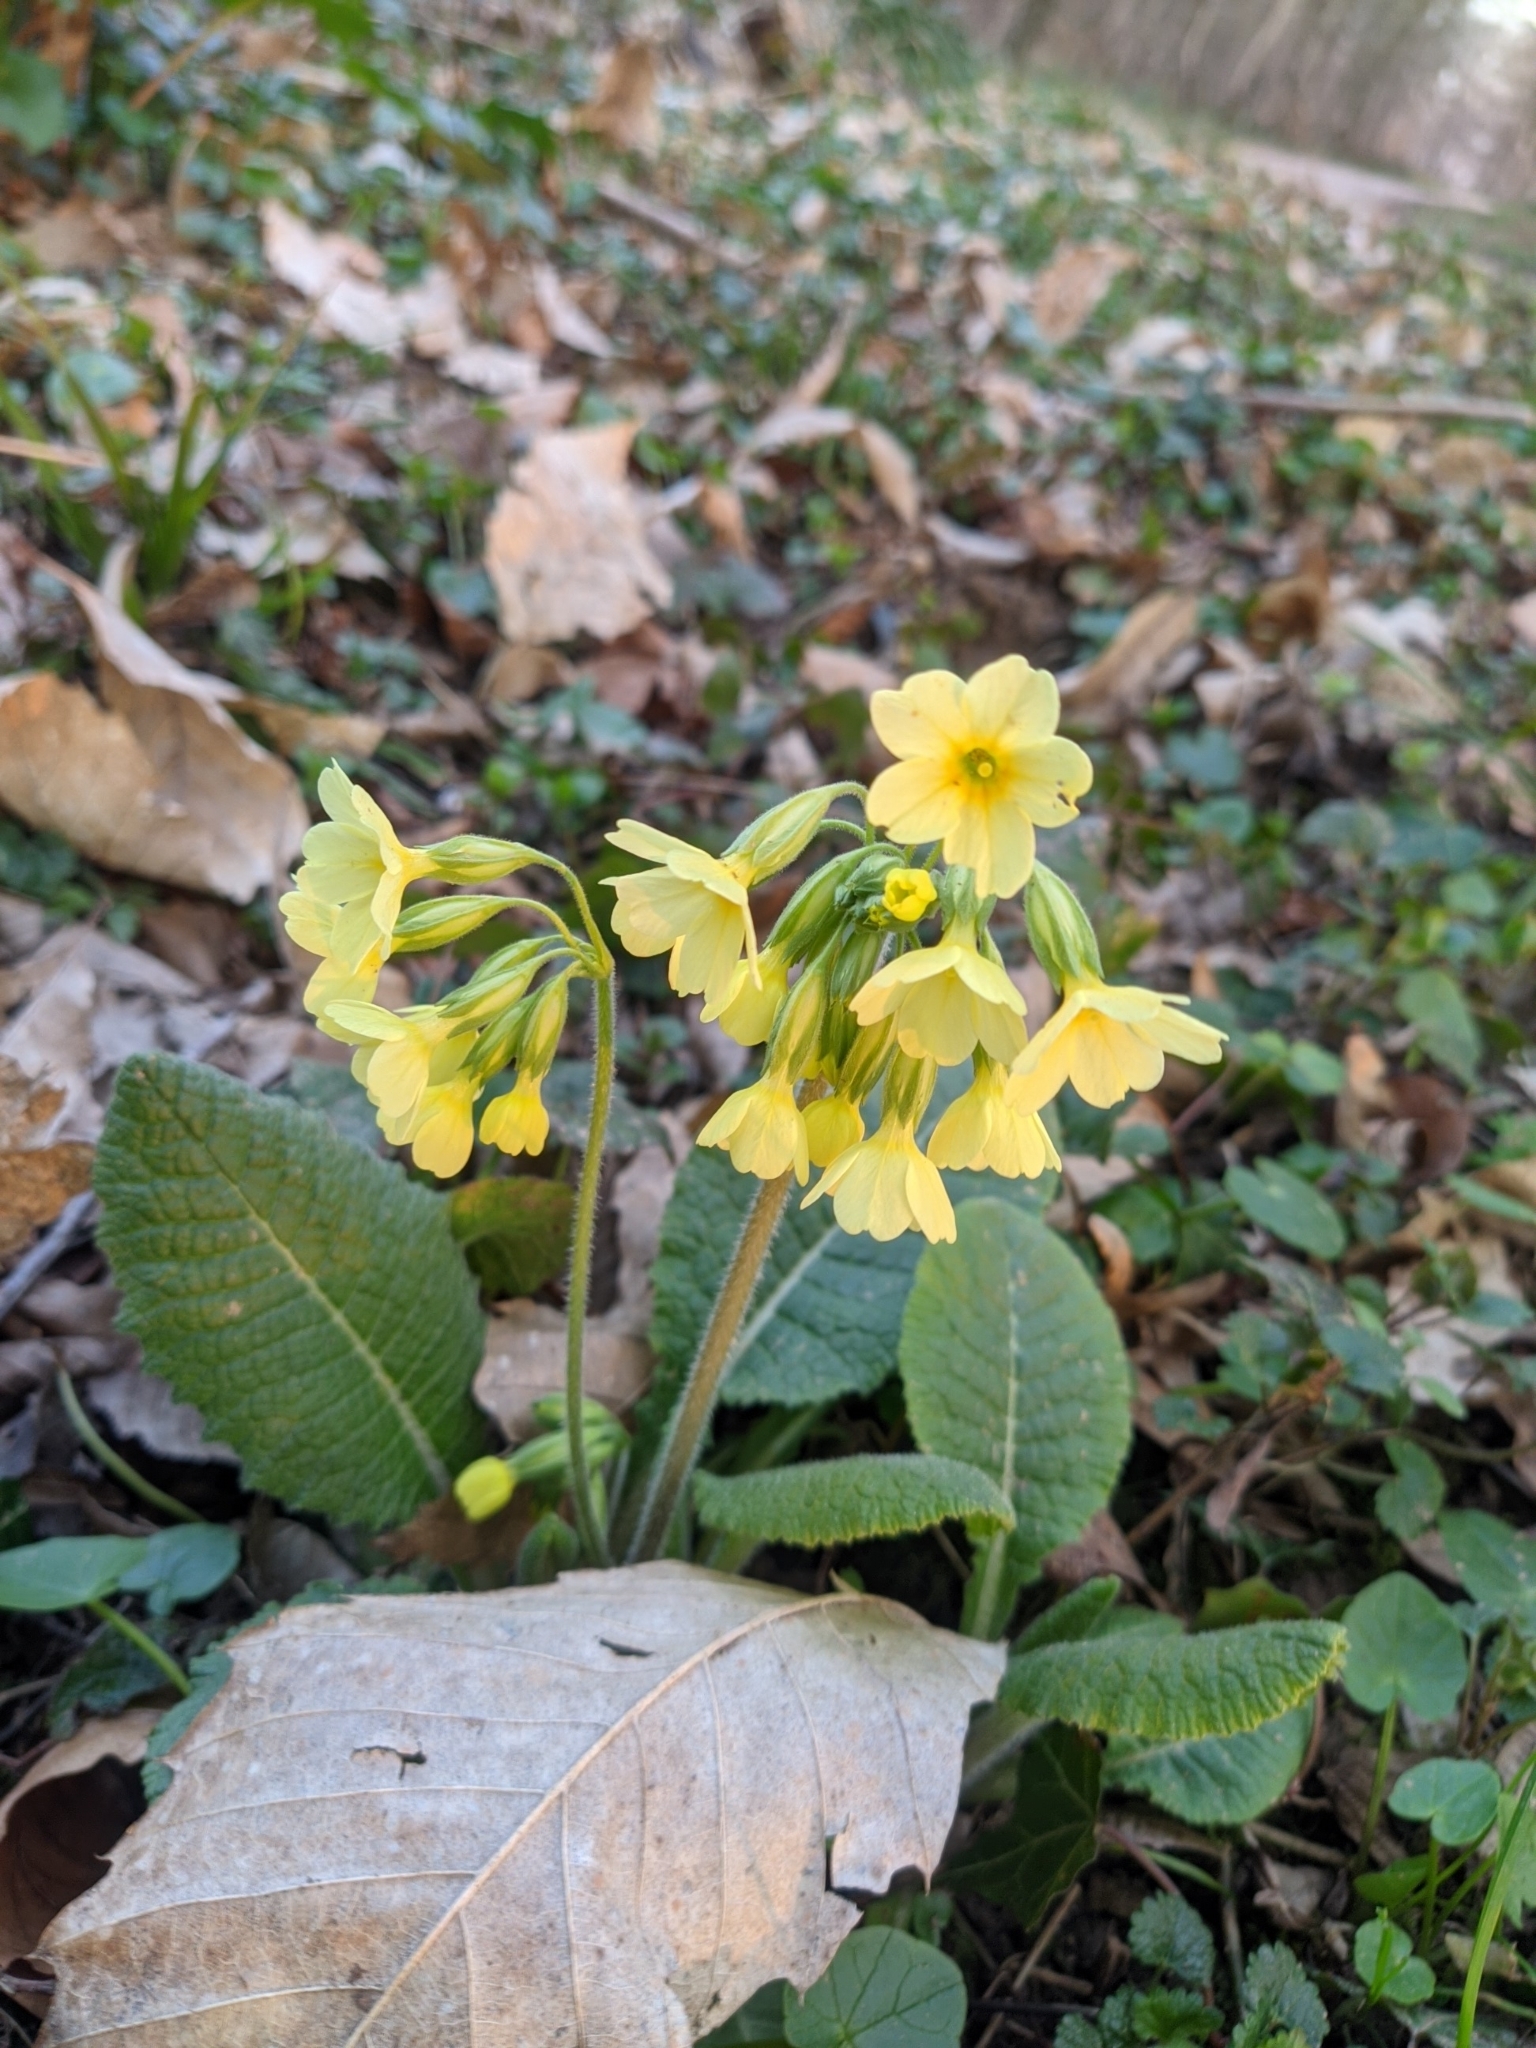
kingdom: Plantae
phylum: Tracheophyta
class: Magnoliopsida
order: Ericales
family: Primulaceae
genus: Primula
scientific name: Primula elatior
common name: Oxlip
